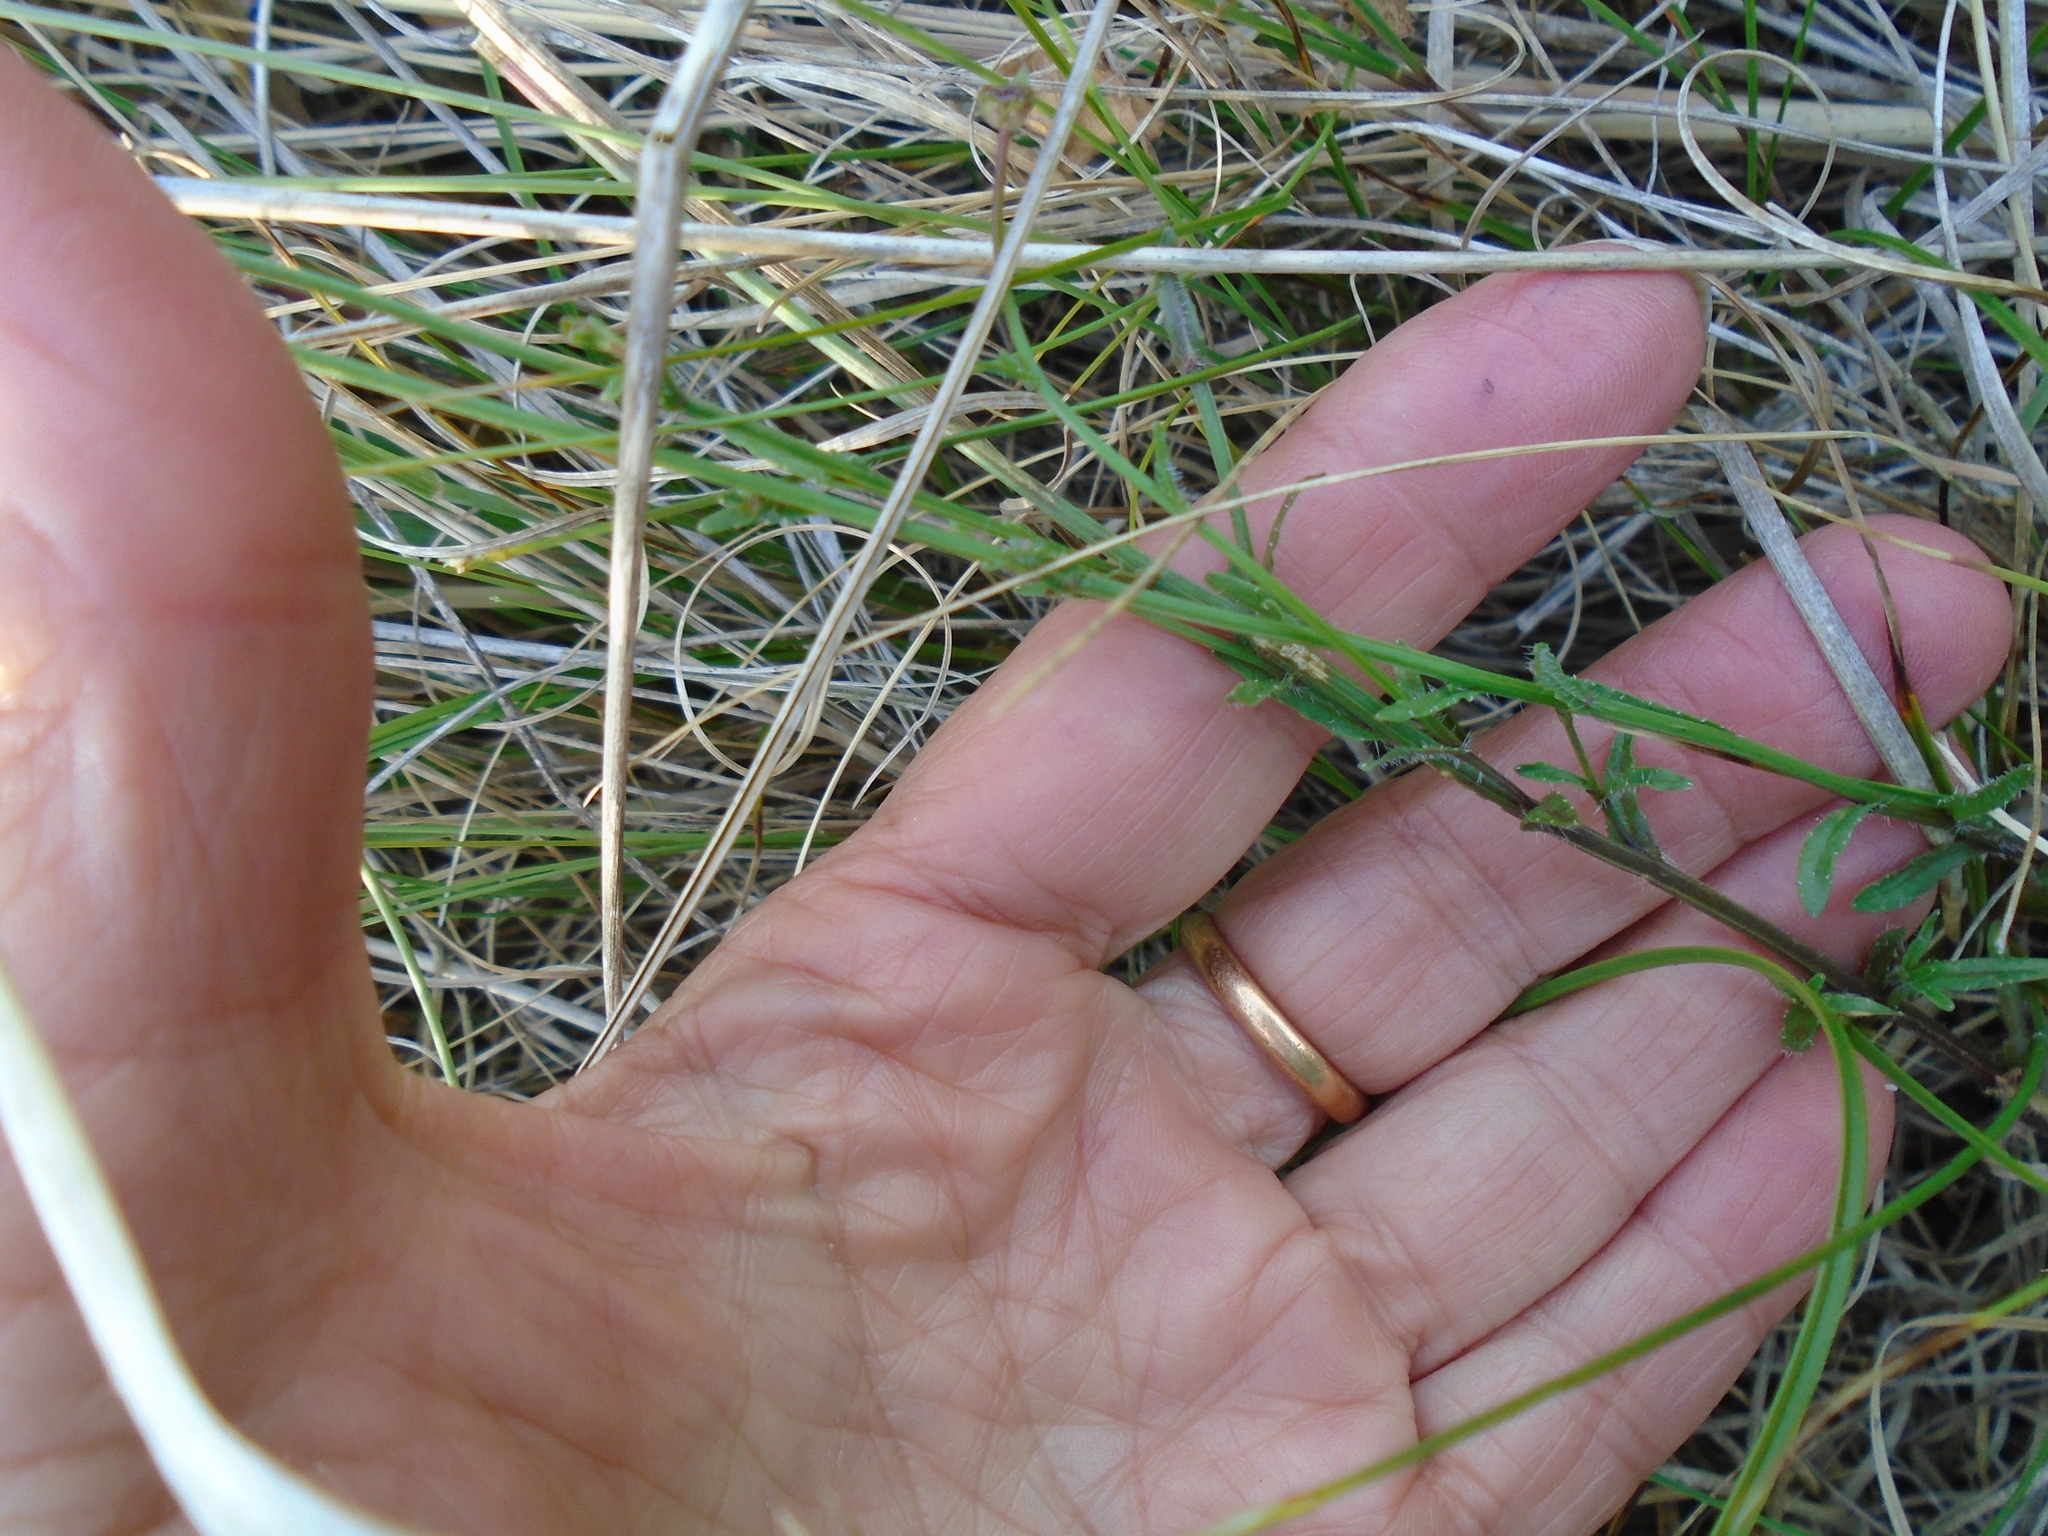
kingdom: Plantae
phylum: Tracheophyta
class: Magnoliopsida
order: Asterales
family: Campanulaceae
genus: Jasione
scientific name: Jasione montana
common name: Sheep's-bit
